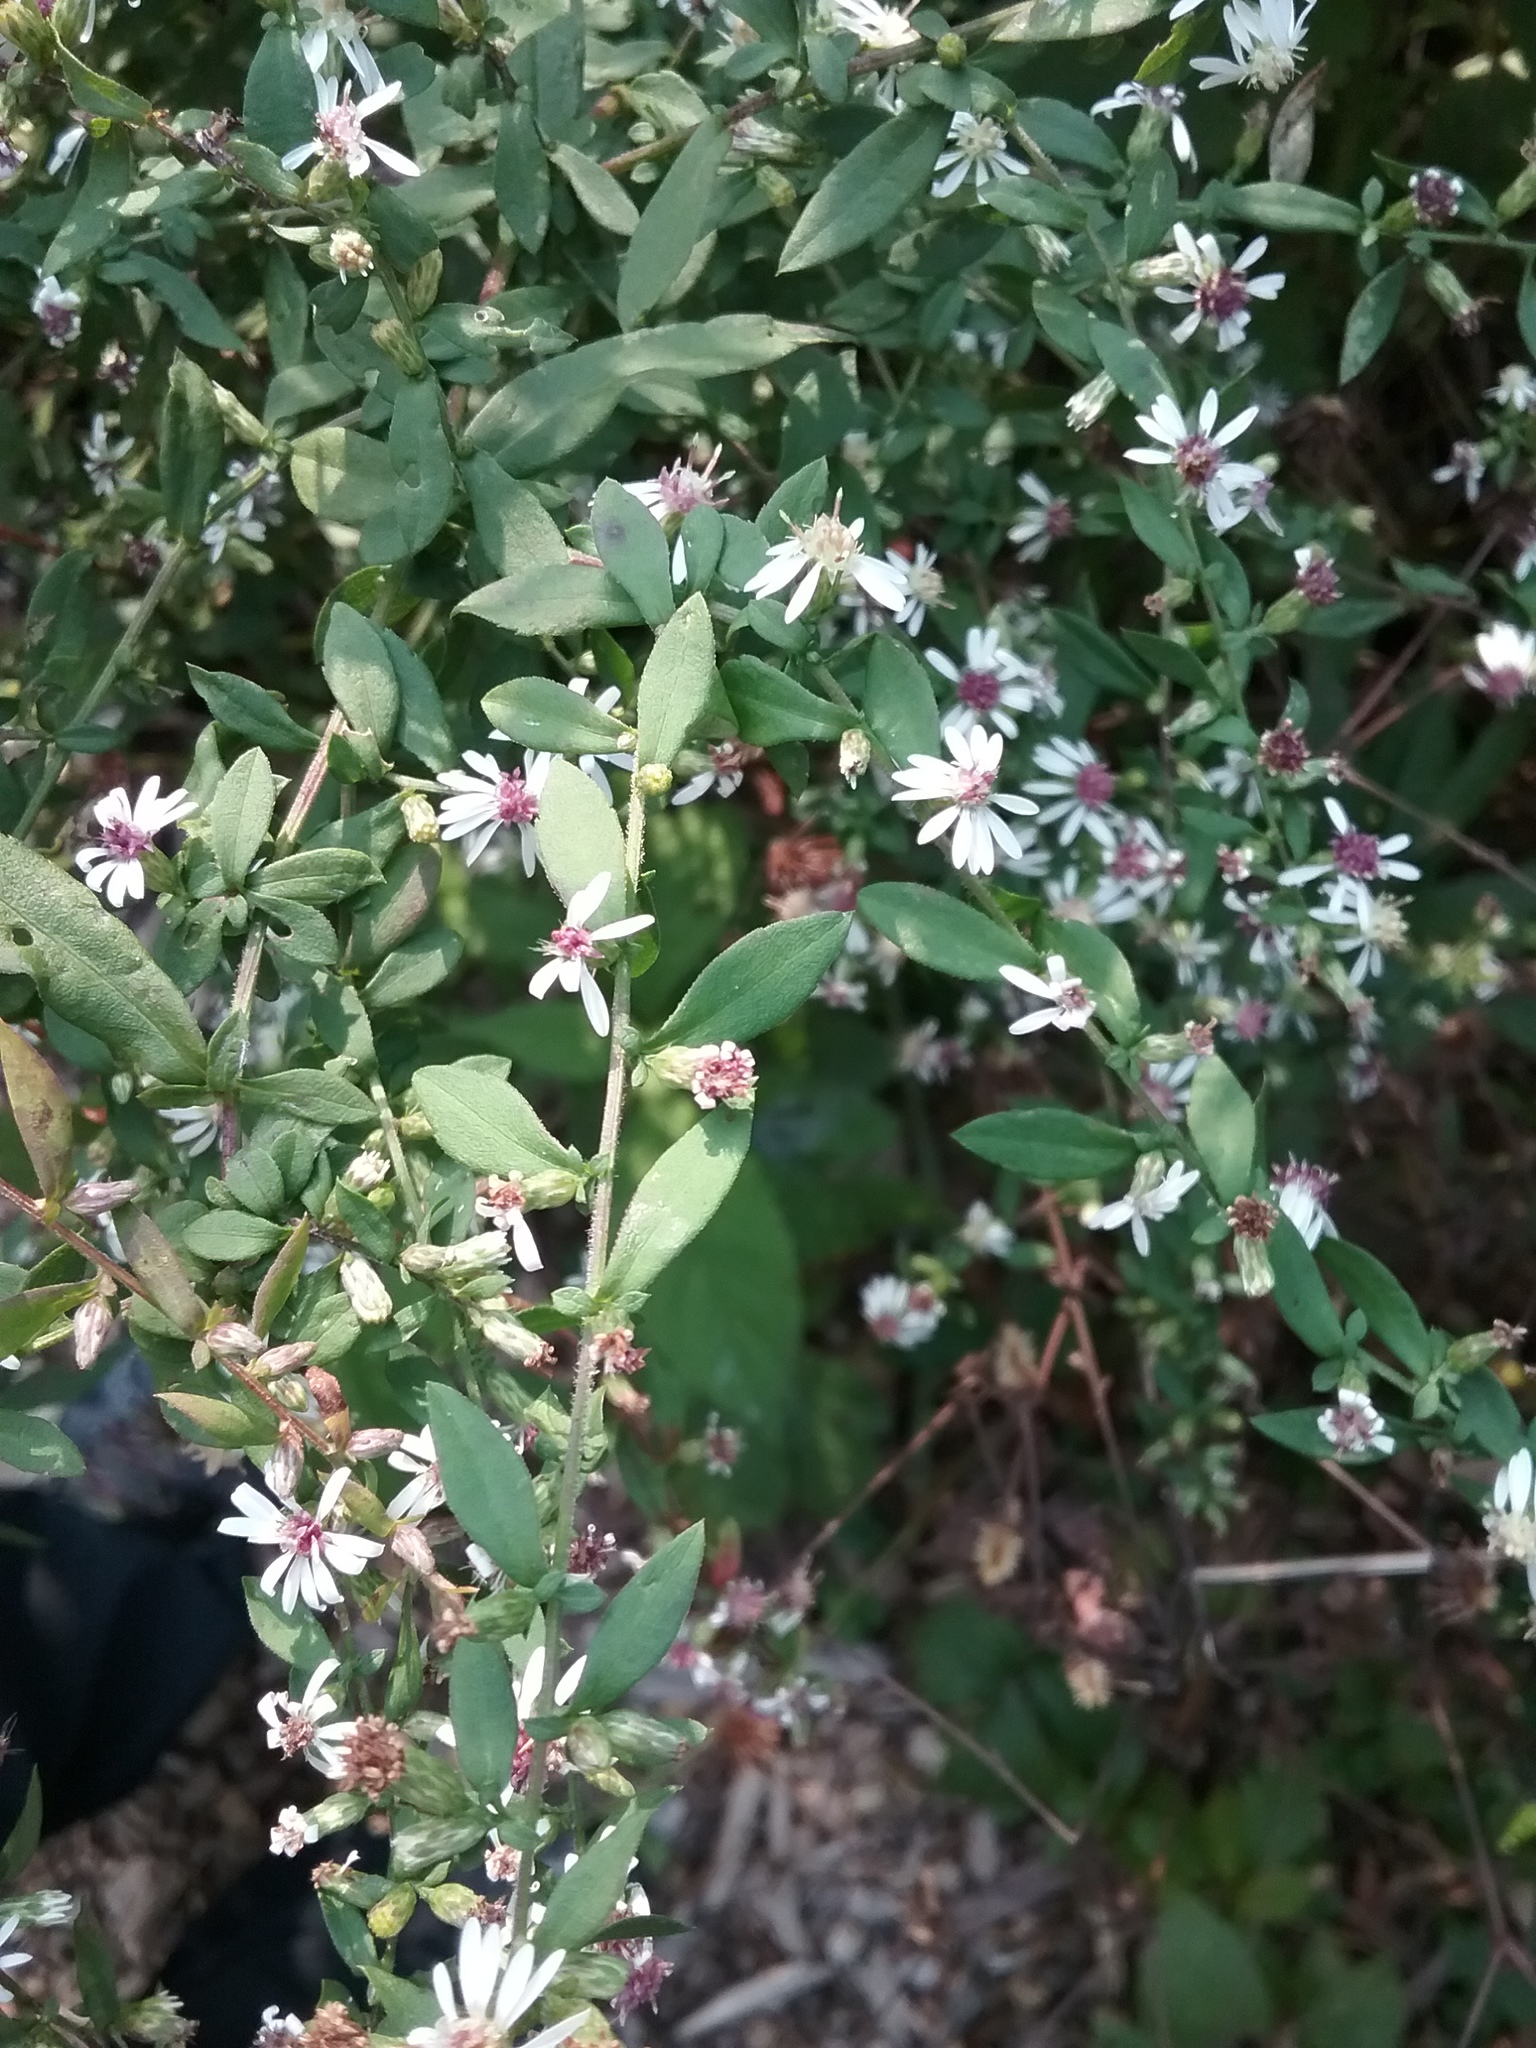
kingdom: Plantae
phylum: Tracheophyta
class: Magnoliopsida
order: Asterales
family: Asteraceae
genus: Symphyotrichum
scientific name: Symphyotrichum lateriflorum
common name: Calico aster
